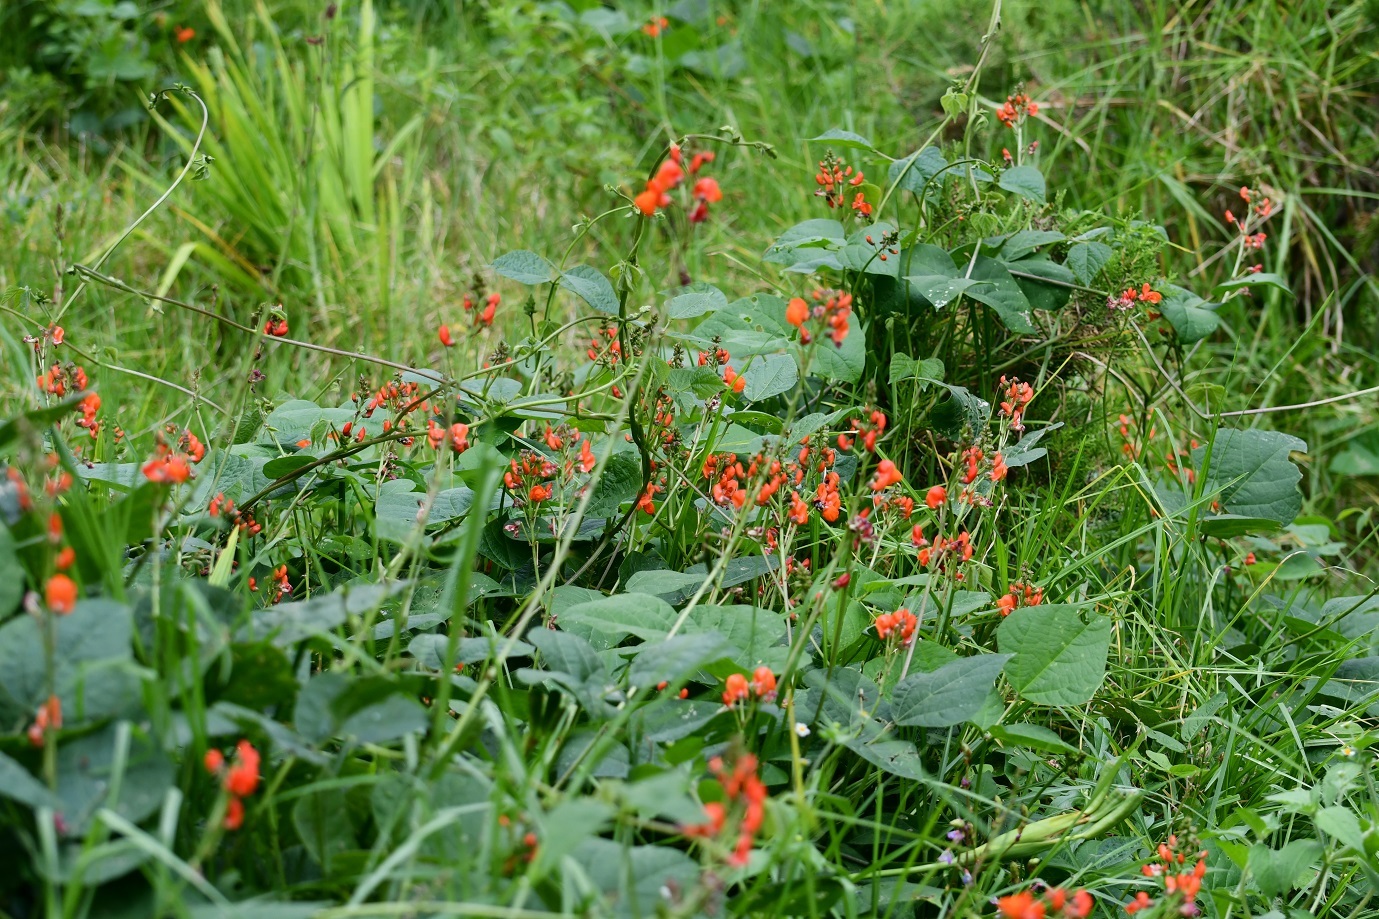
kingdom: Plantae
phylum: Tracheophyta
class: Magnoliopsida
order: Fabales
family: Fabaceae
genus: Phaseolus
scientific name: Phaseolus coccineus
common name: Runner bean
